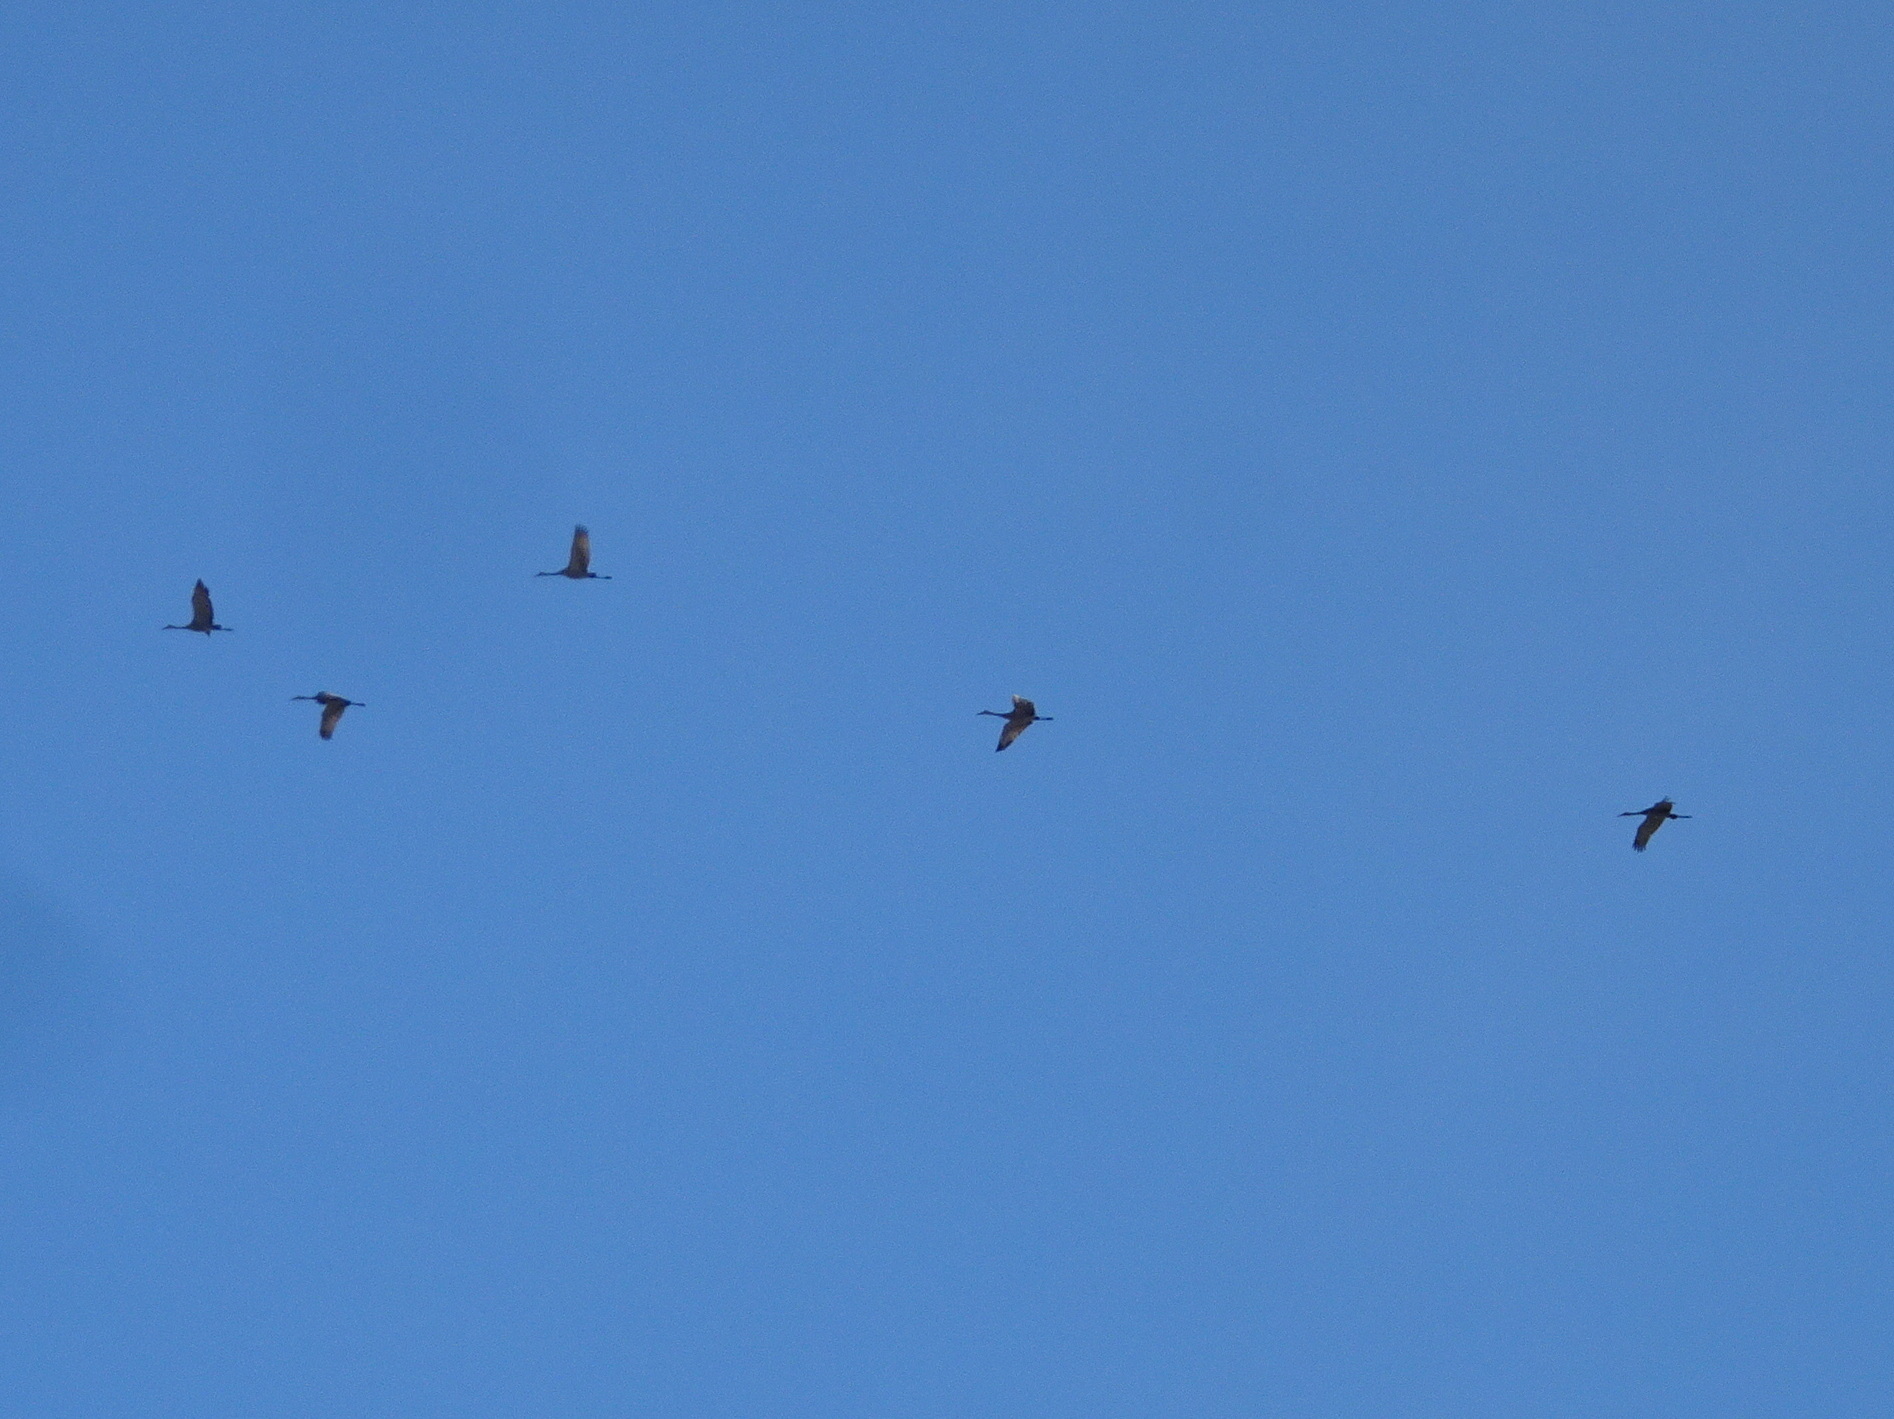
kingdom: Animalia
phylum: Chordata
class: Aves
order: Gruiformes
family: Gruidae
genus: Grus
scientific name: Grus canadensis
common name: Sandhill crane
